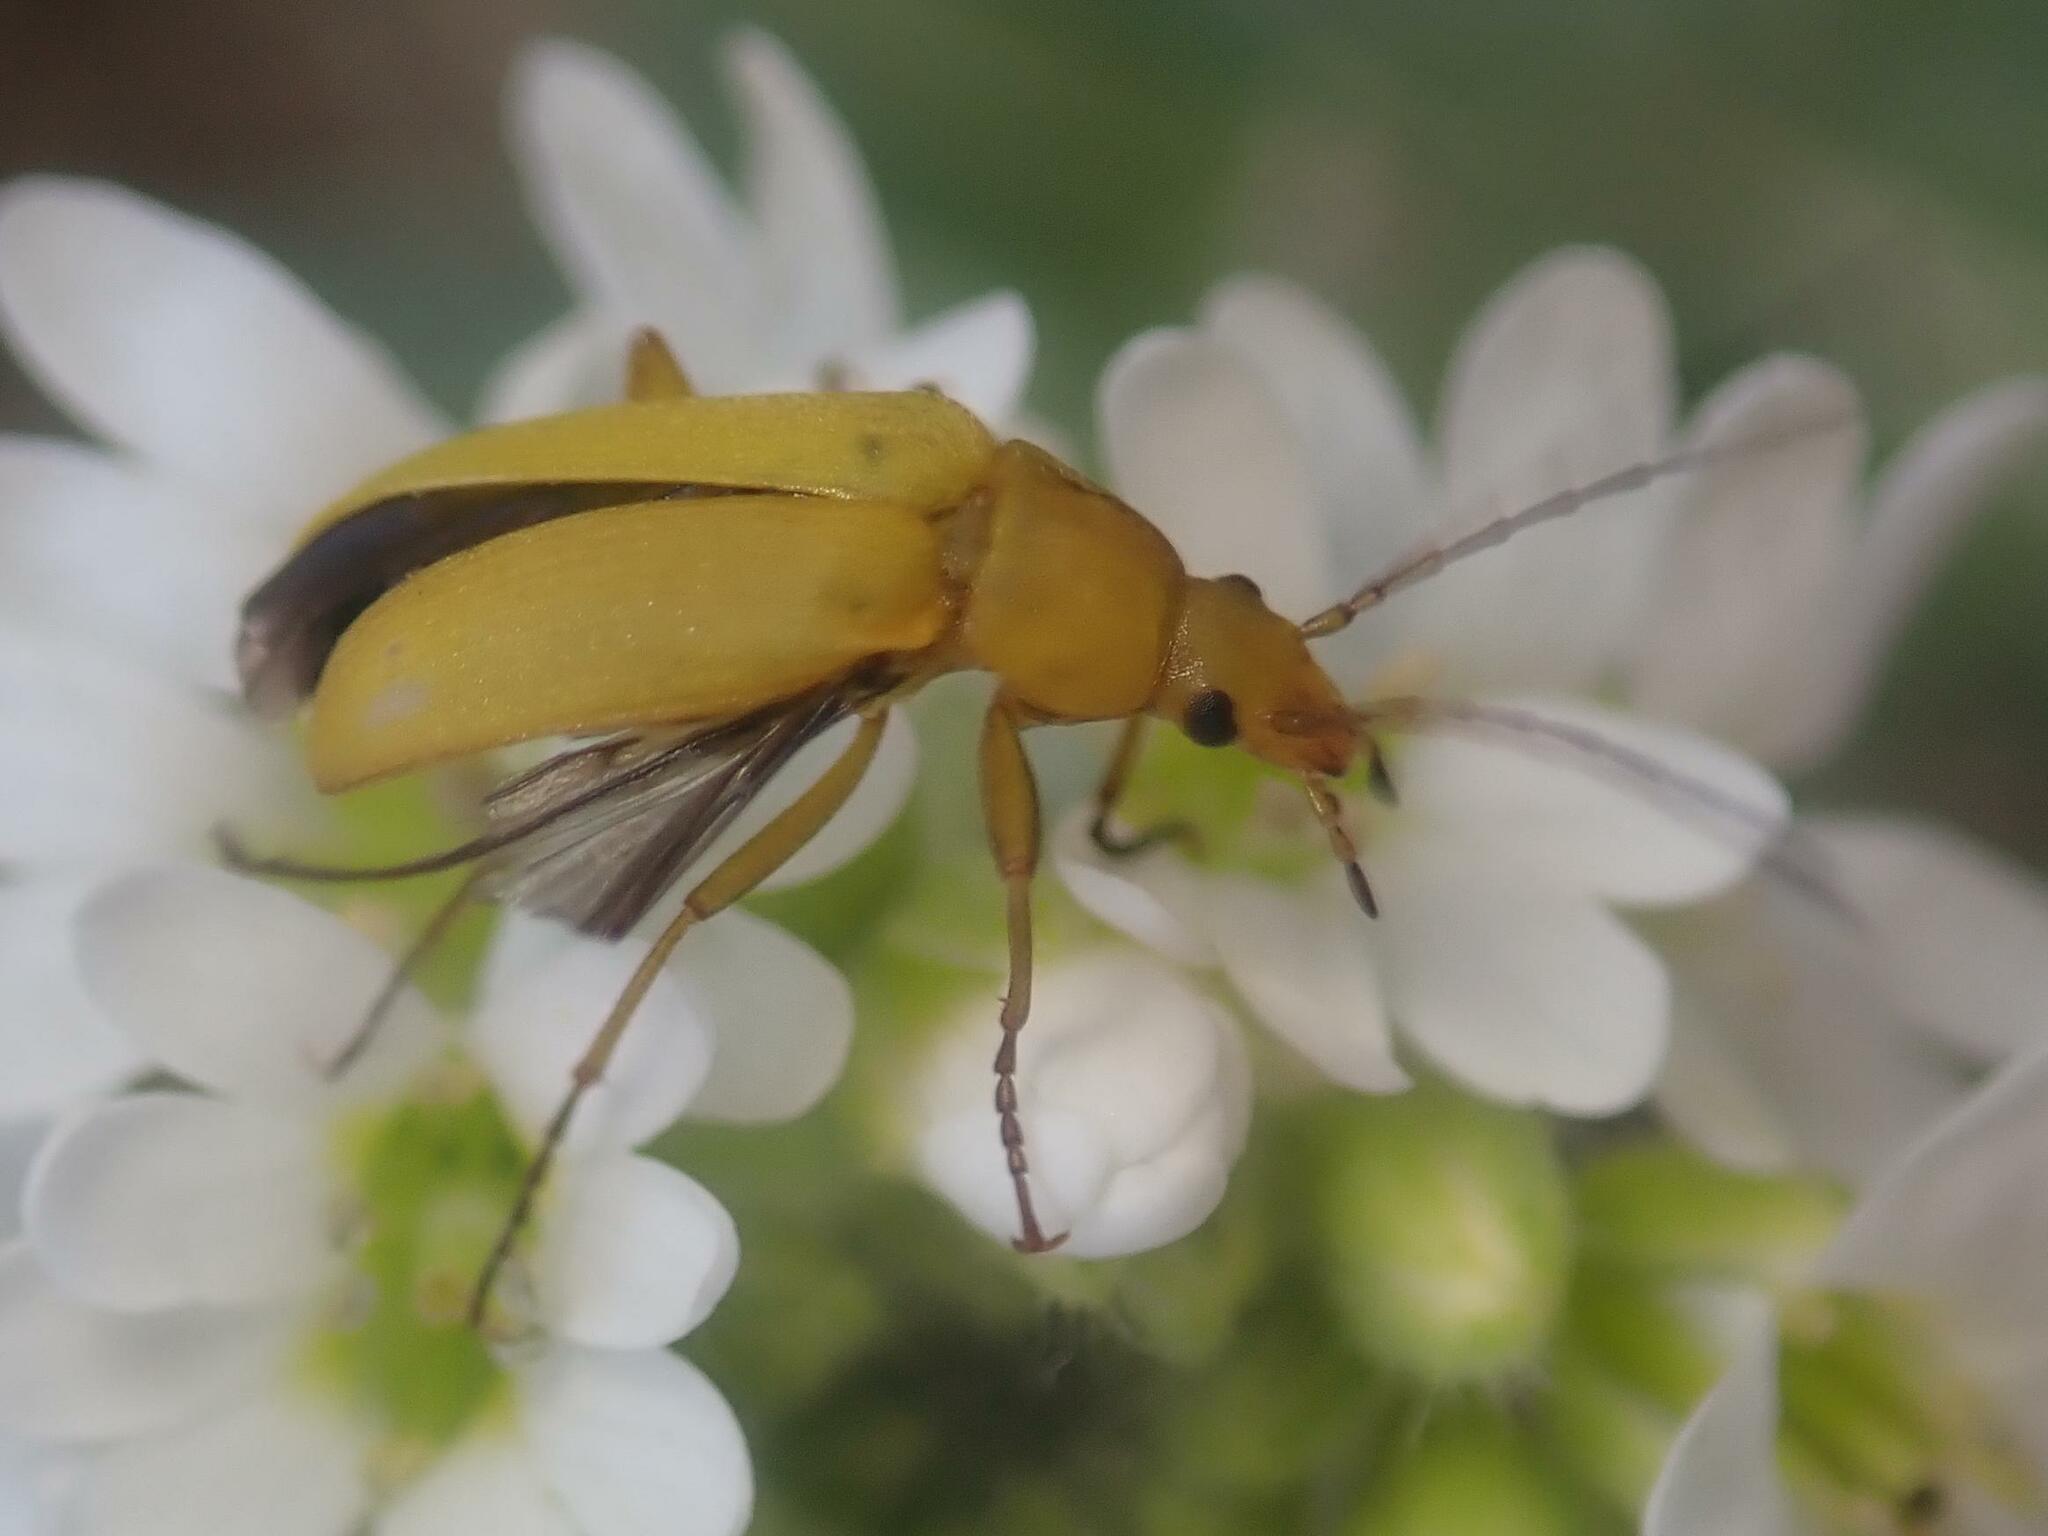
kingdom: Animalia
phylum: Arthropoda
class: Insecta
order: Coleoptera
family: Tenebrionidae
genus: Cteniopus
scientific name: Cteniopus sulphureus
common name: Sulphur beetle
